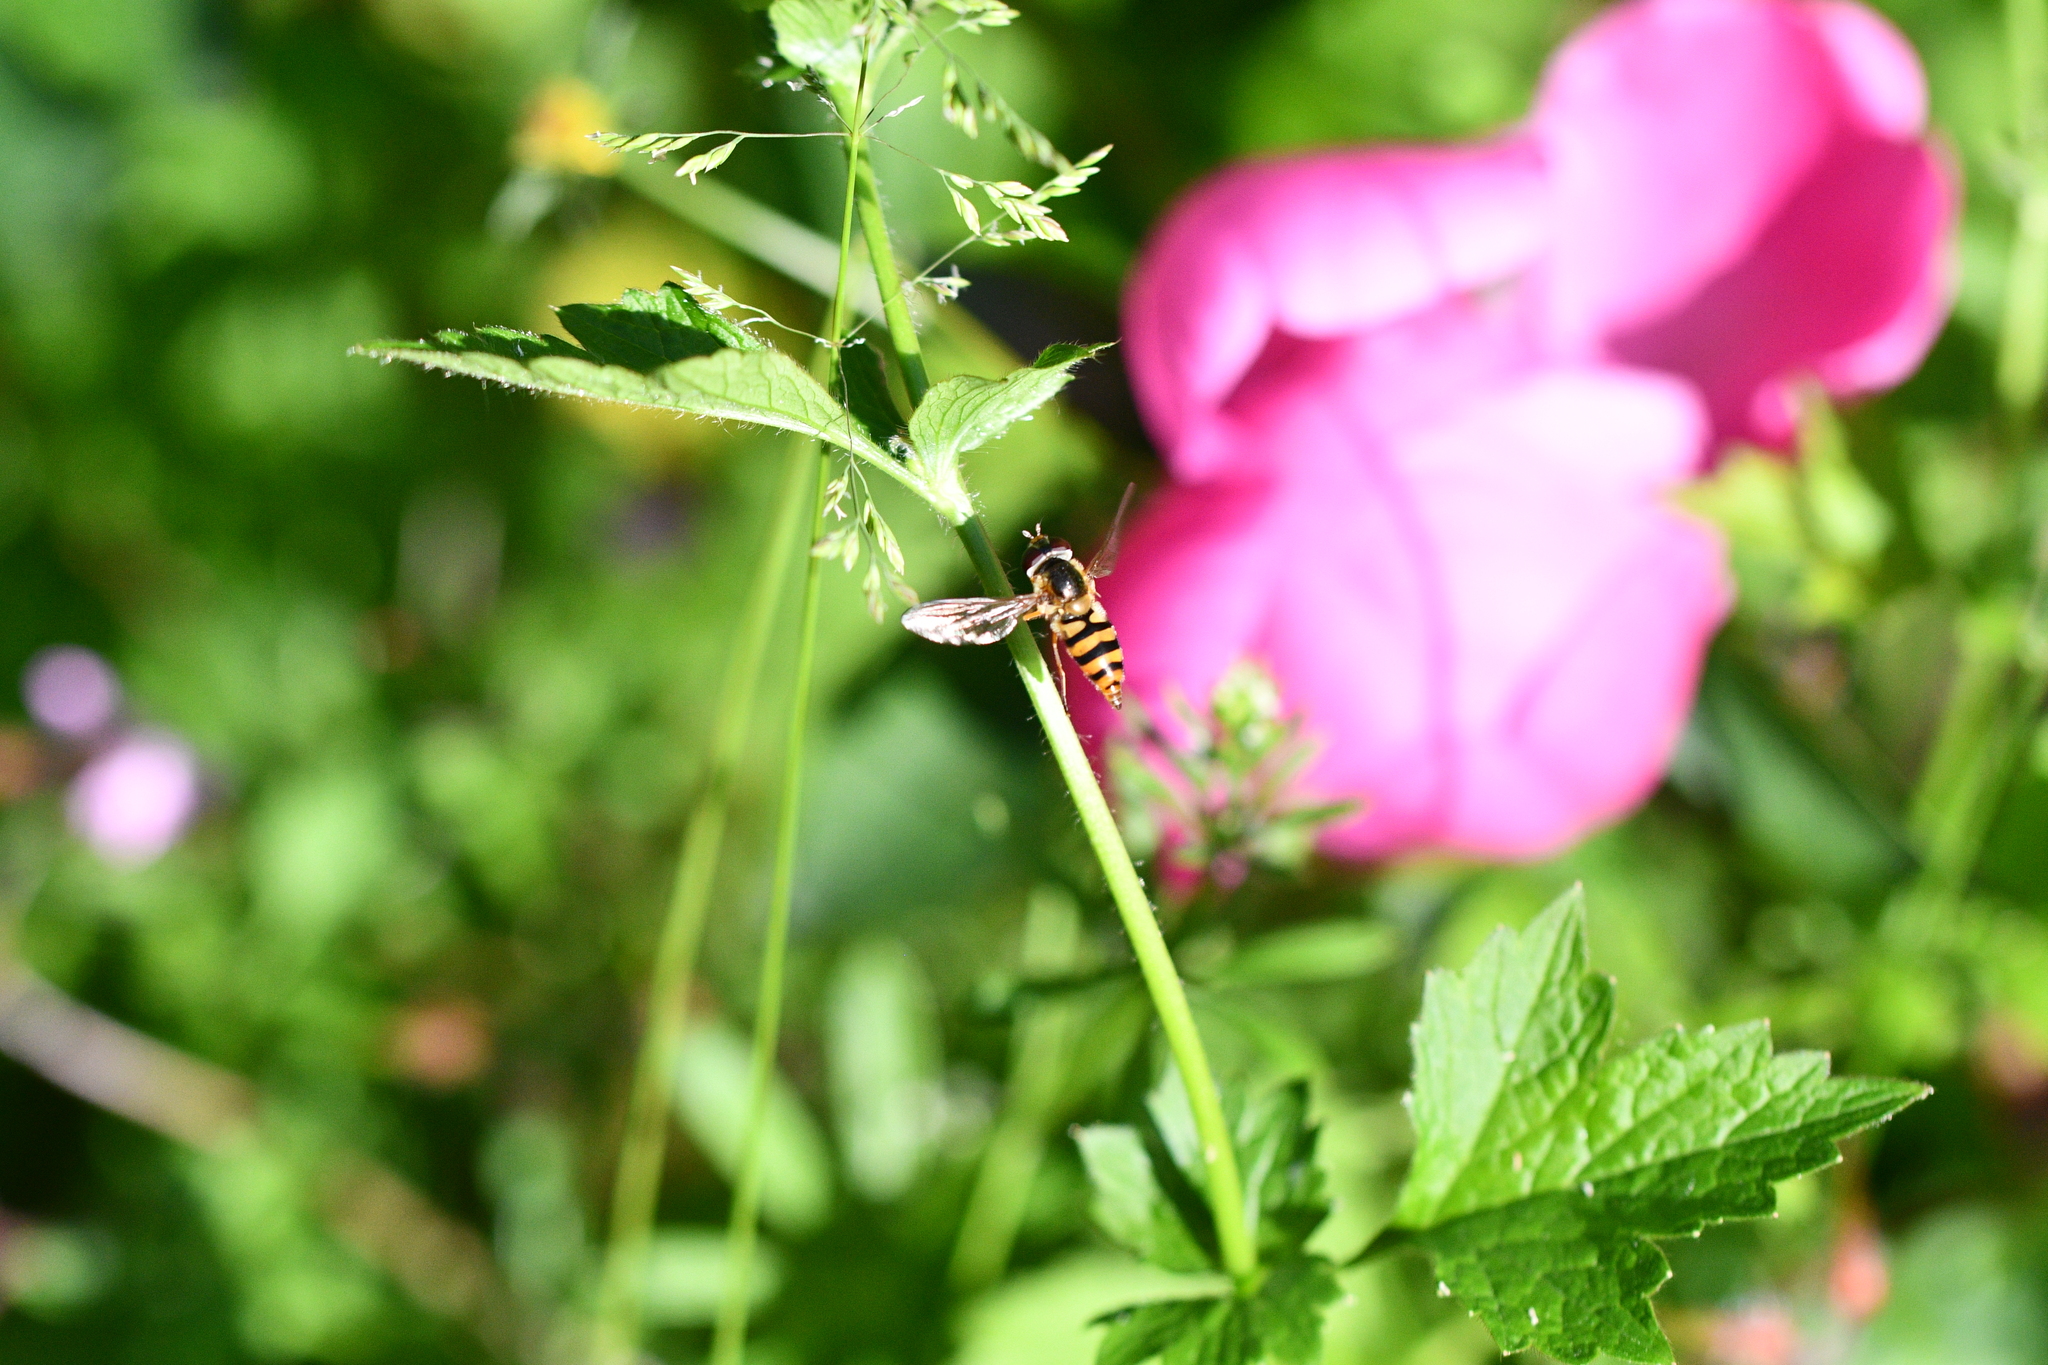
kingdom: Animalia
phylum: Arthropoda
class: Insecta
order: Diptera
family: Syrphidae
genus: Epistrophe
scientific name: Epistrophe nitidicollis
